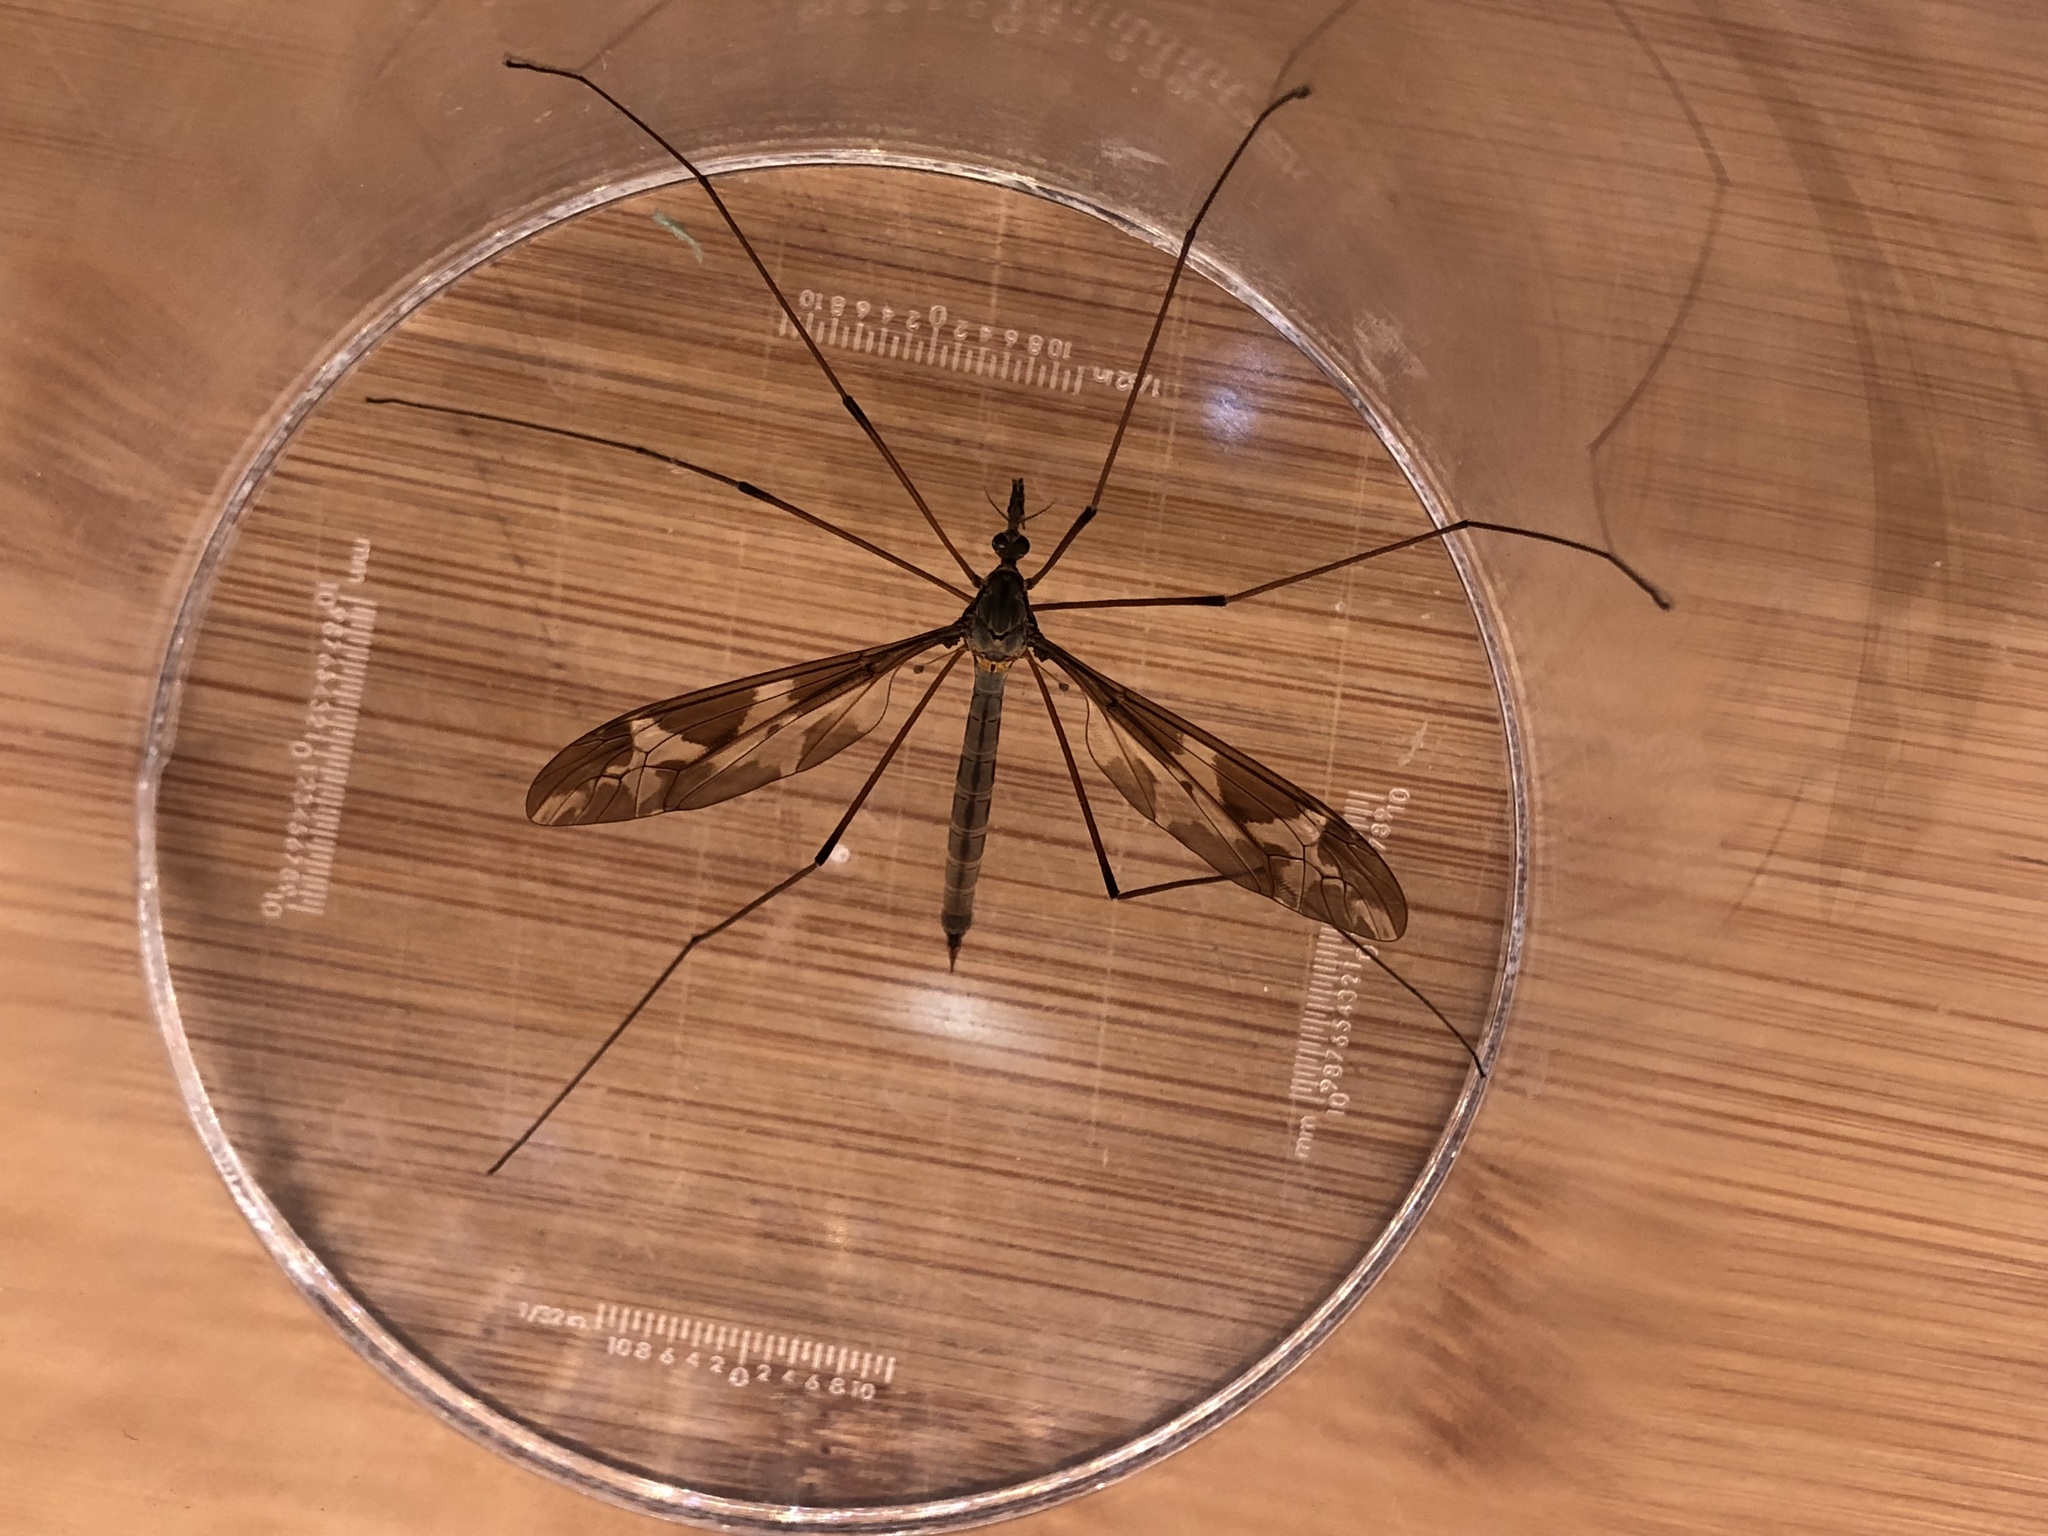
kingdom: Animalia
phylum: Arthropoda
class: Insecta
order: Diptera
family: Tipulidae
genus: Tipula
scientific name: Tipula maxima
